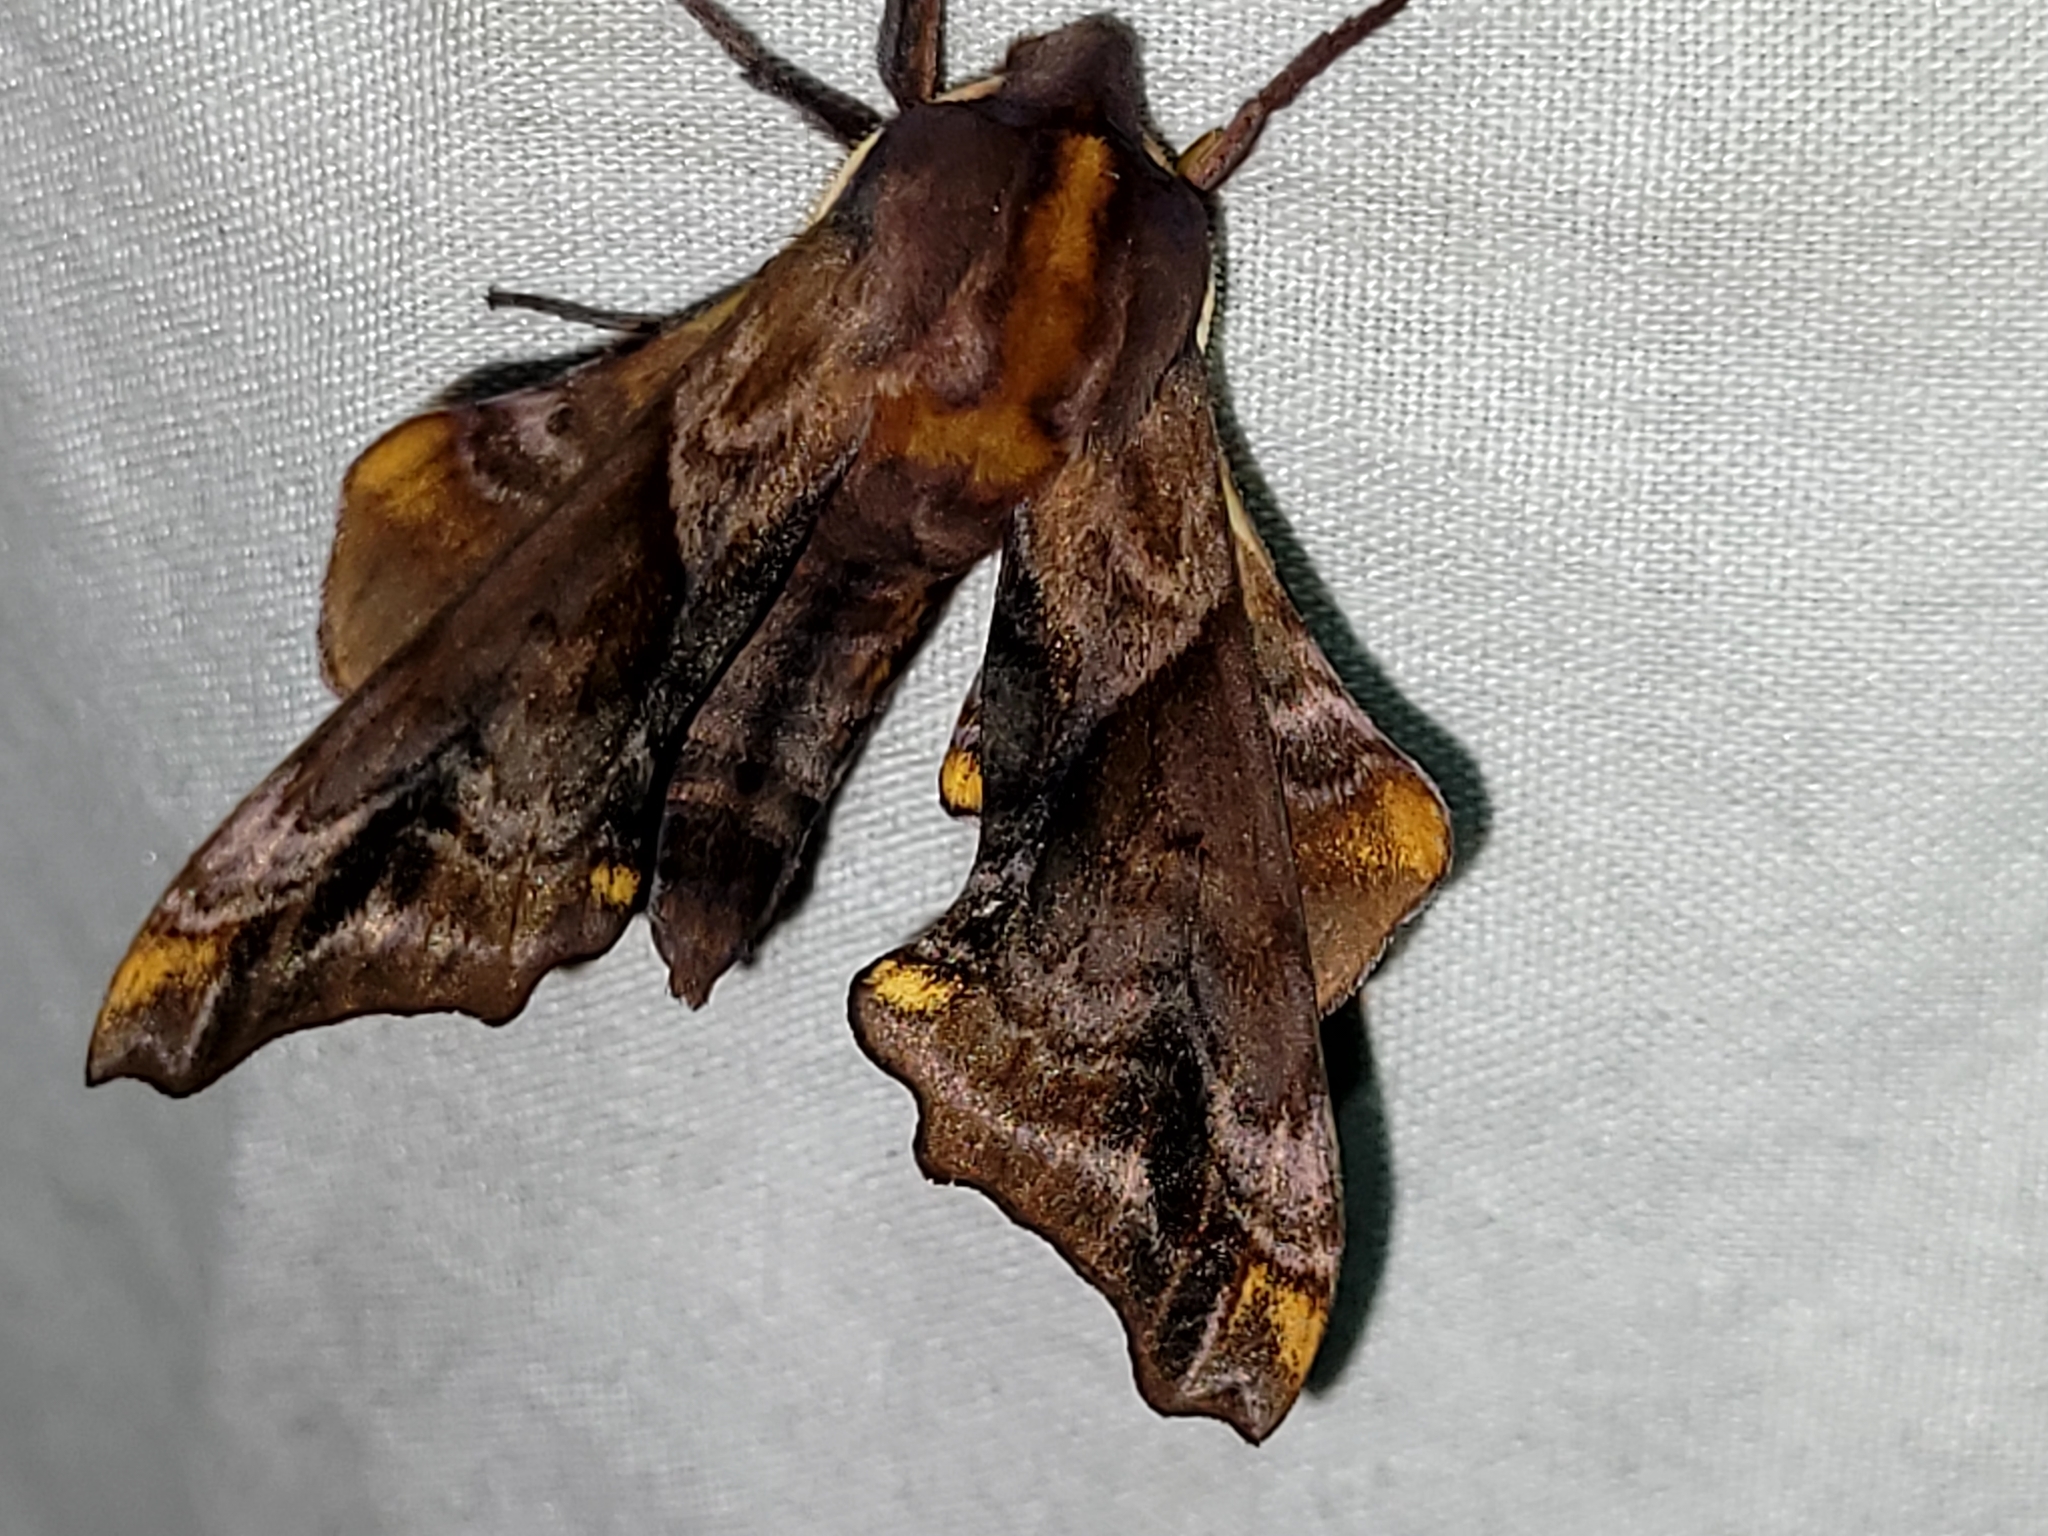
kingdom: Animalia
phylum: Arthropoda
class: Insecta
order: Lepidoptera
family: Sphingidae
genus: Paonias
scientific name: Paonias myops
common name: Small-eyed sphinx
